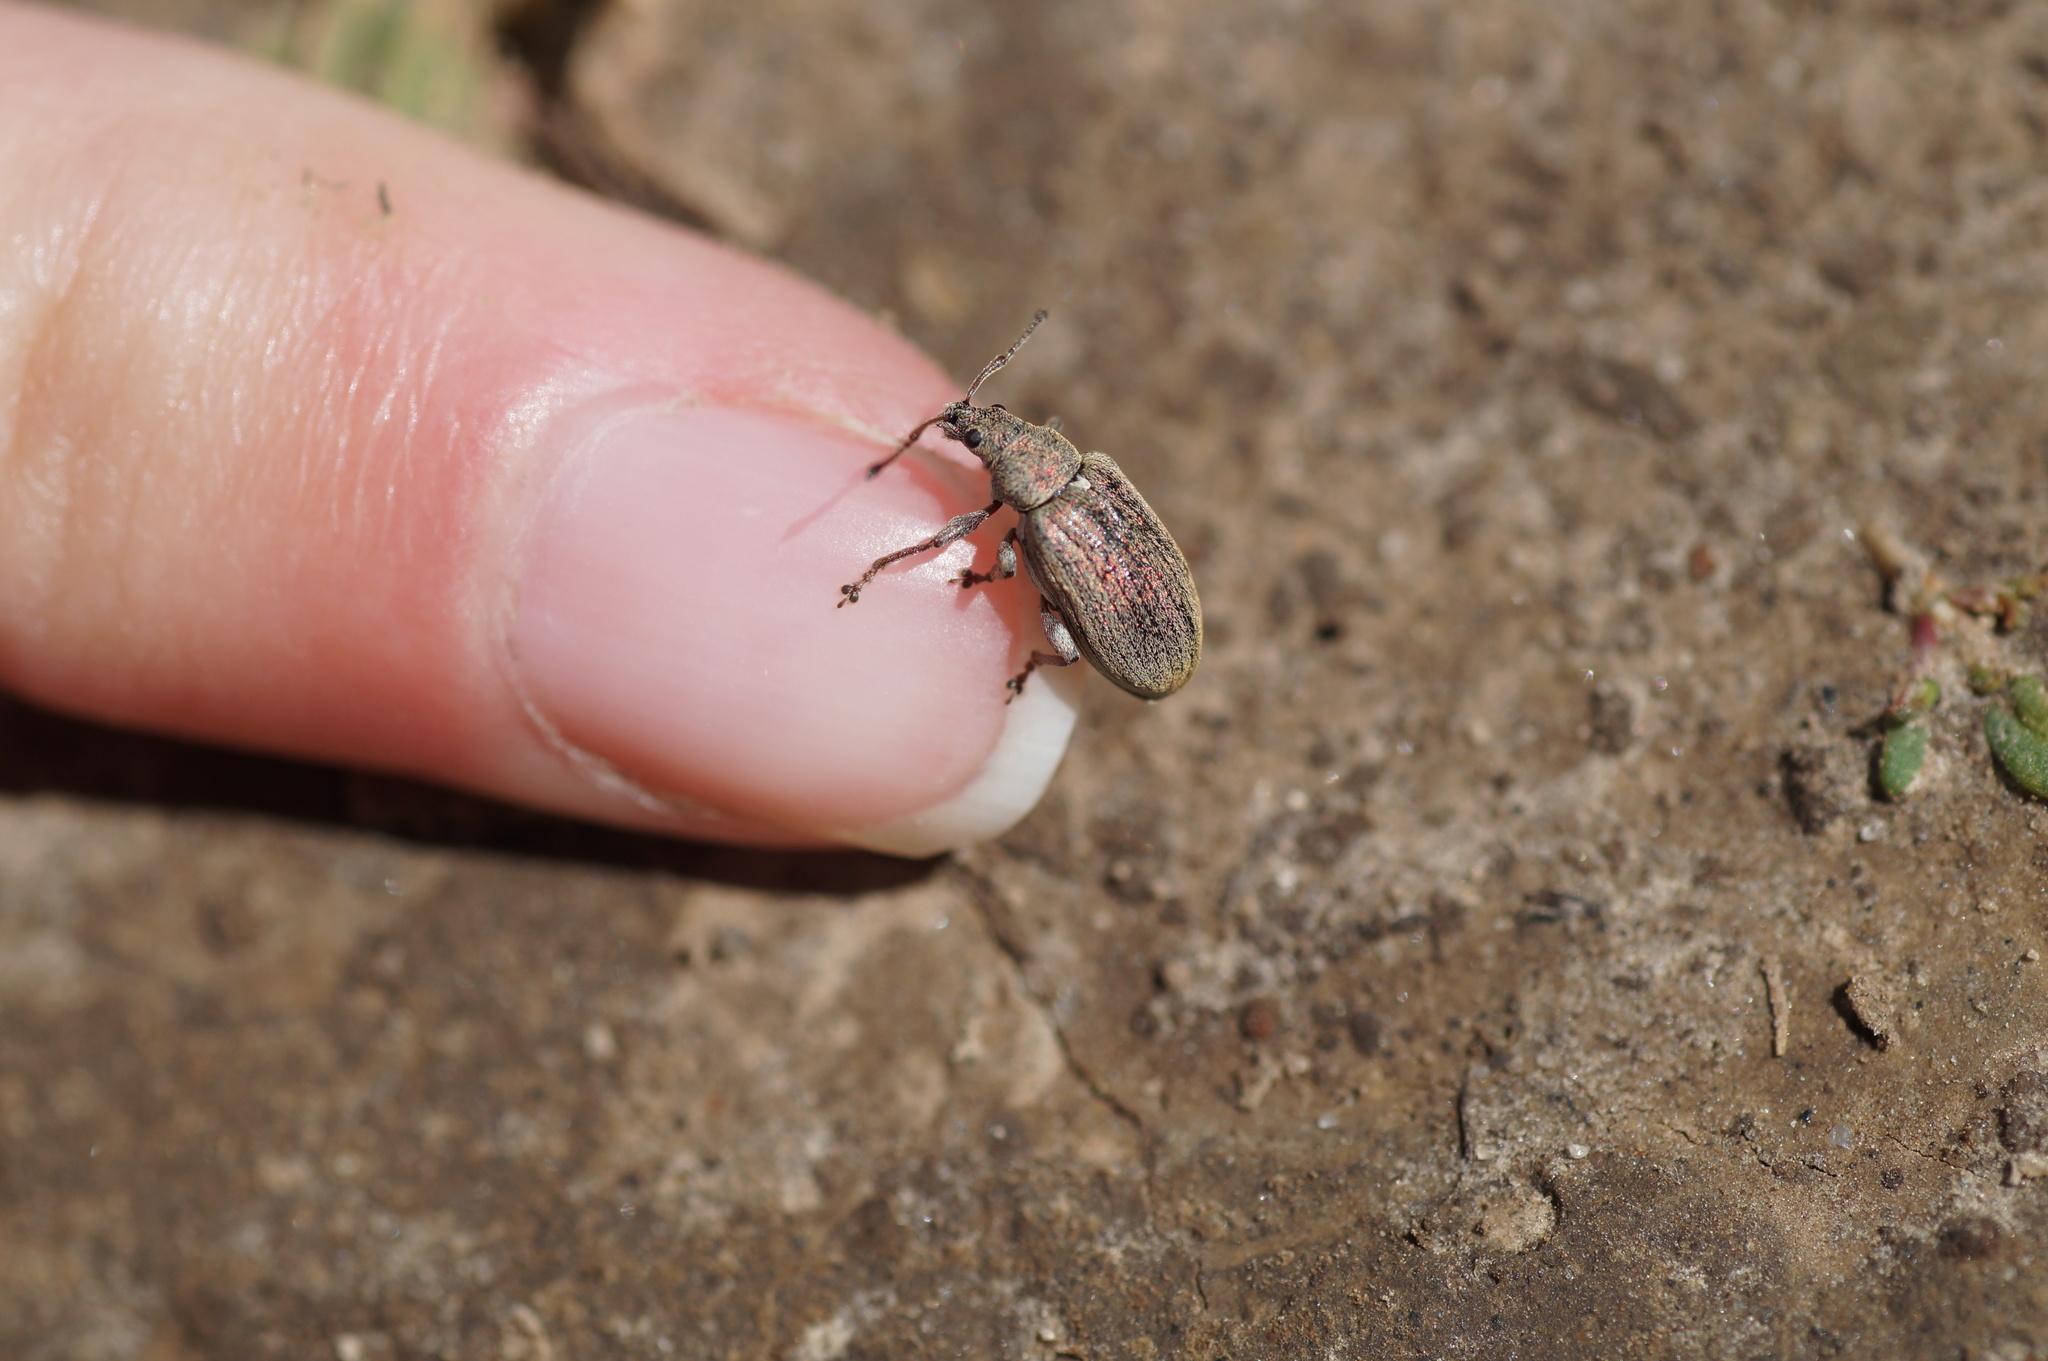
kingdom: Animalia
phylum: Arthropoda
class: Insecta
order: Coleoptera
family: Curculionidae
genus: Phyllobius
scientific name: Phyllobius pyri
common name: Common leaf weevil
